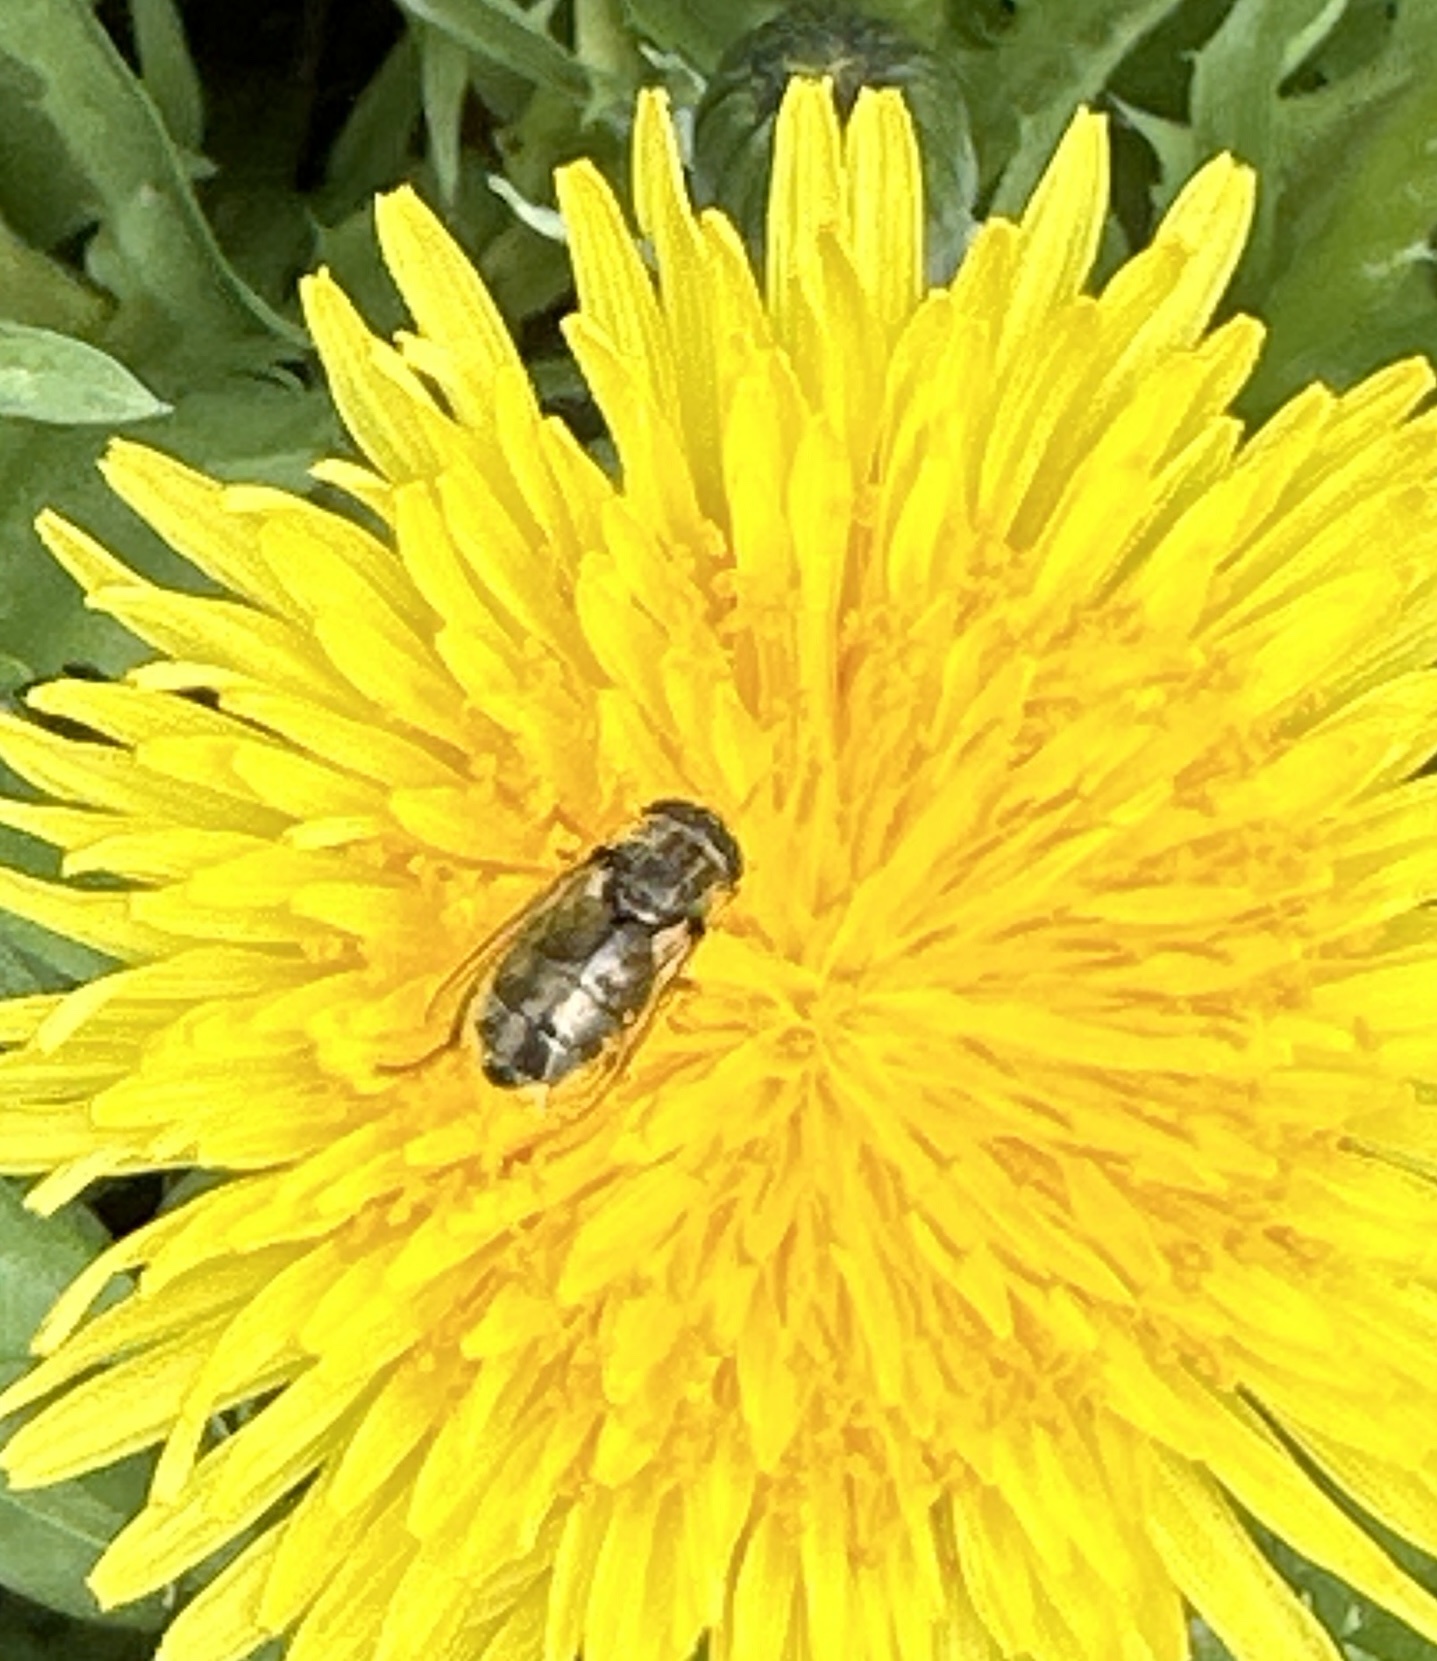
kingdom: Animalia
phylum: Arthropoda
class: Insecta
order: Diptera
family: Syrphidae
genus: Eristalinus
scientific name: Eristalinus aeneus
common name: Syrphid fly
